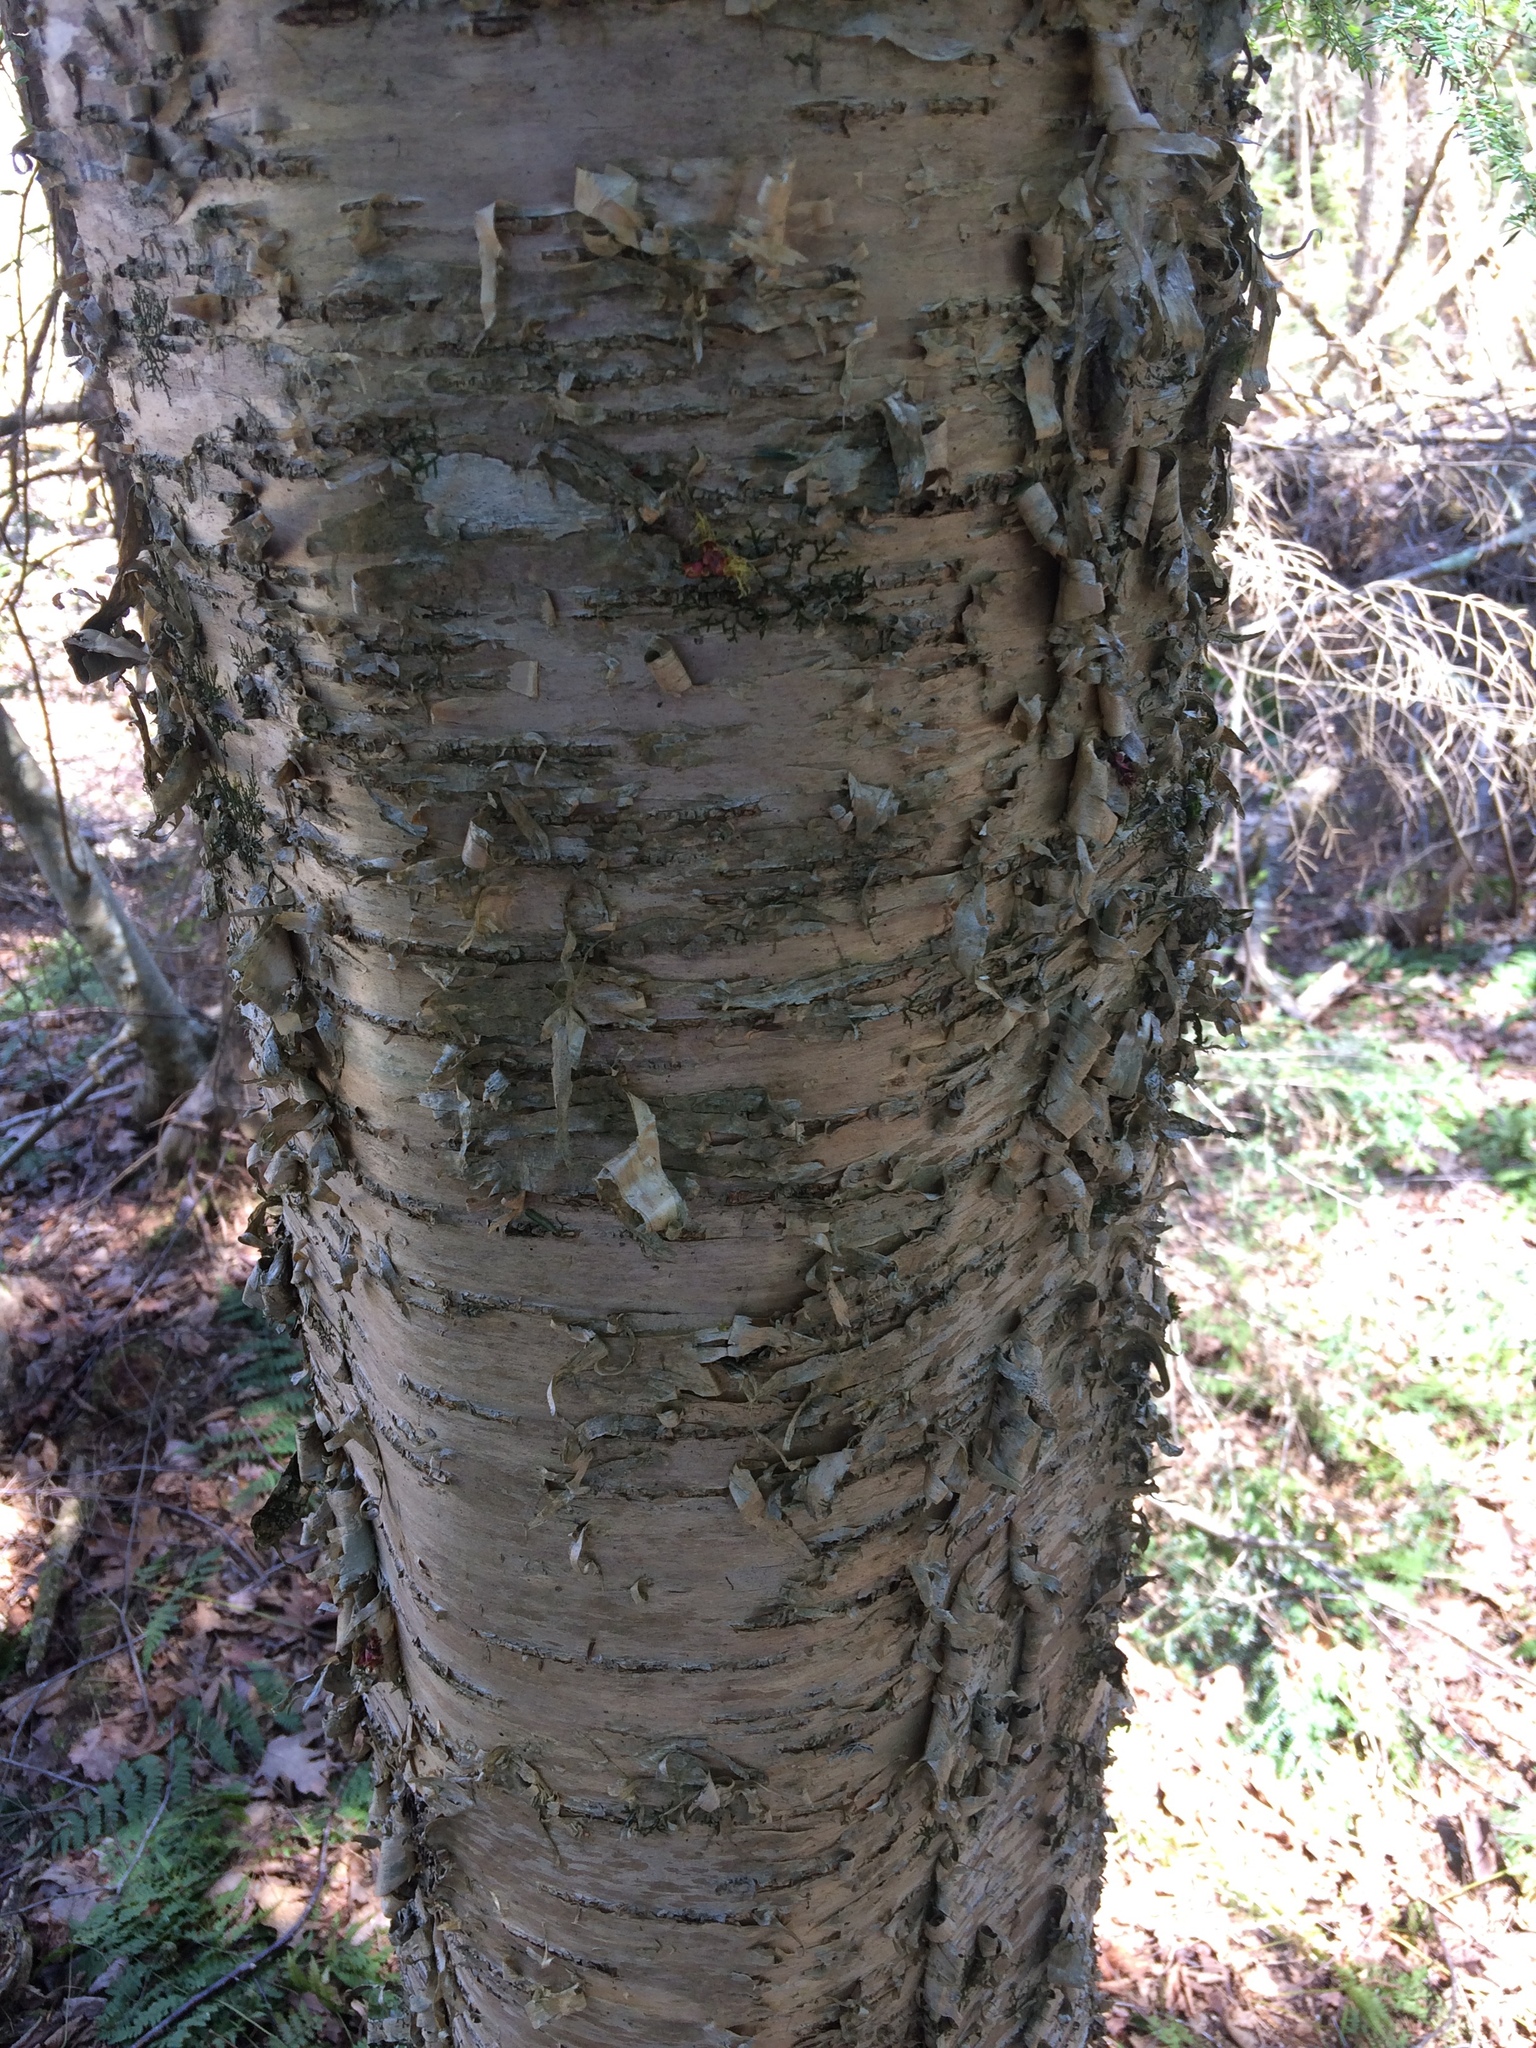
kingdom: Plantae
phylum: Tracheophyta
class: Magnoliopsida
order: Fagales
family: Betulaceae
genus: Betula
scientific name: Betula alleghaniensis
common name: Yellow birch
